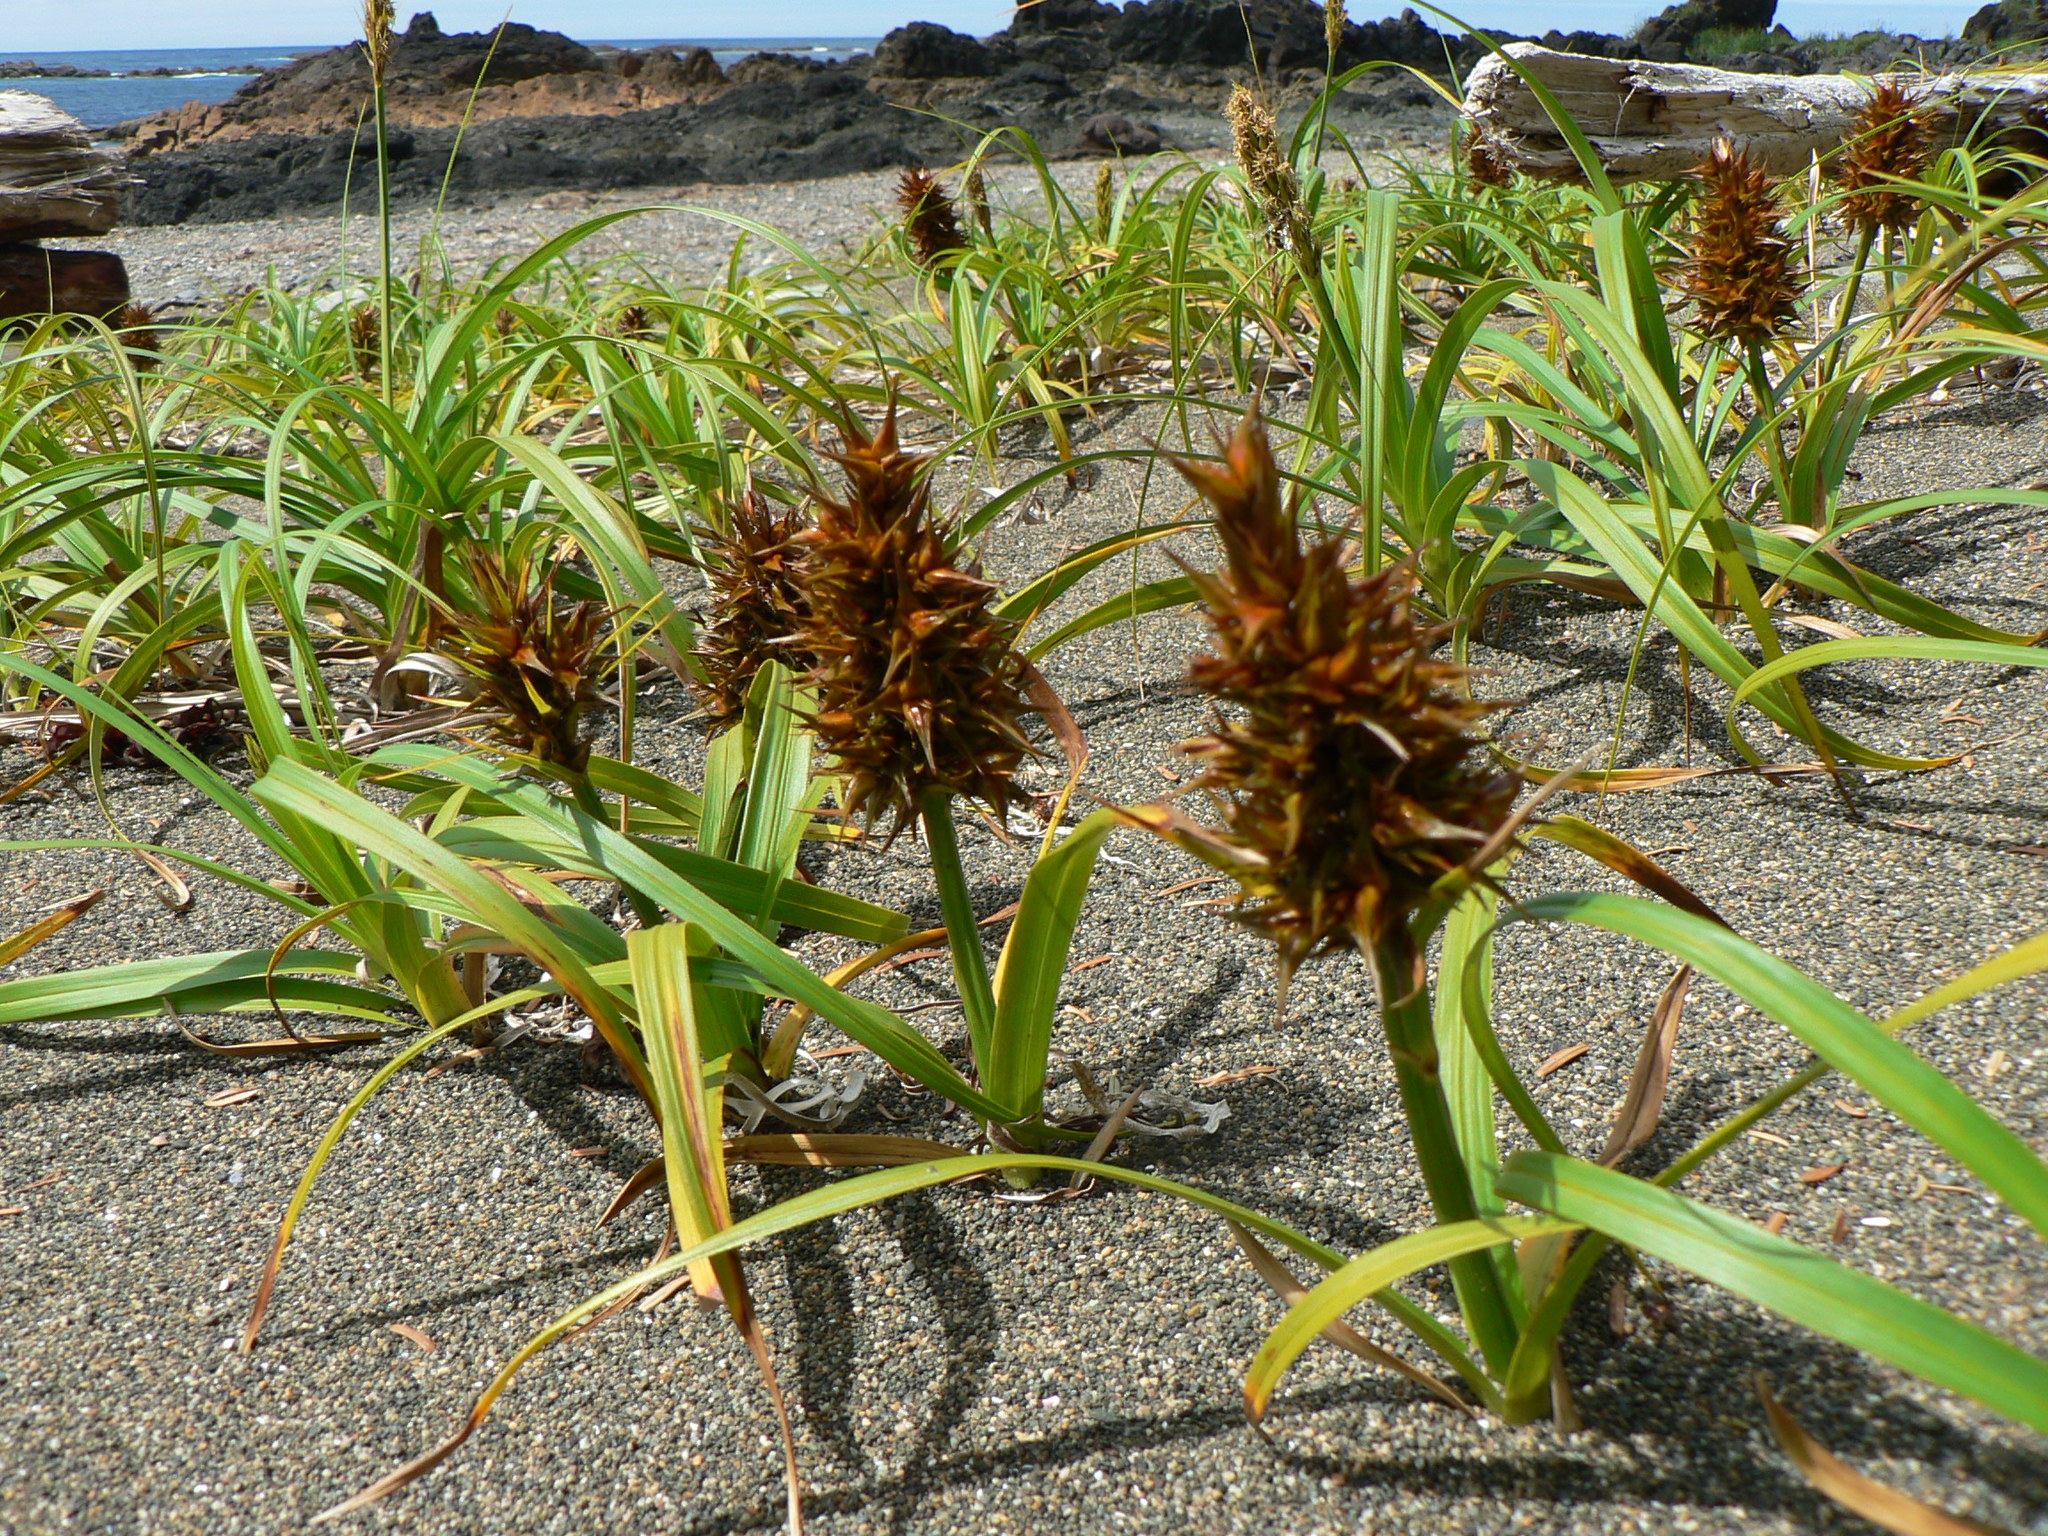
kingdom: Plantae
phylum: Tracheophyta
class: Liliopsida
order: Poales
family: Cyperaceae
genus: Carex
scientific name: Carex macrocephala
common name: Large-head sedge
